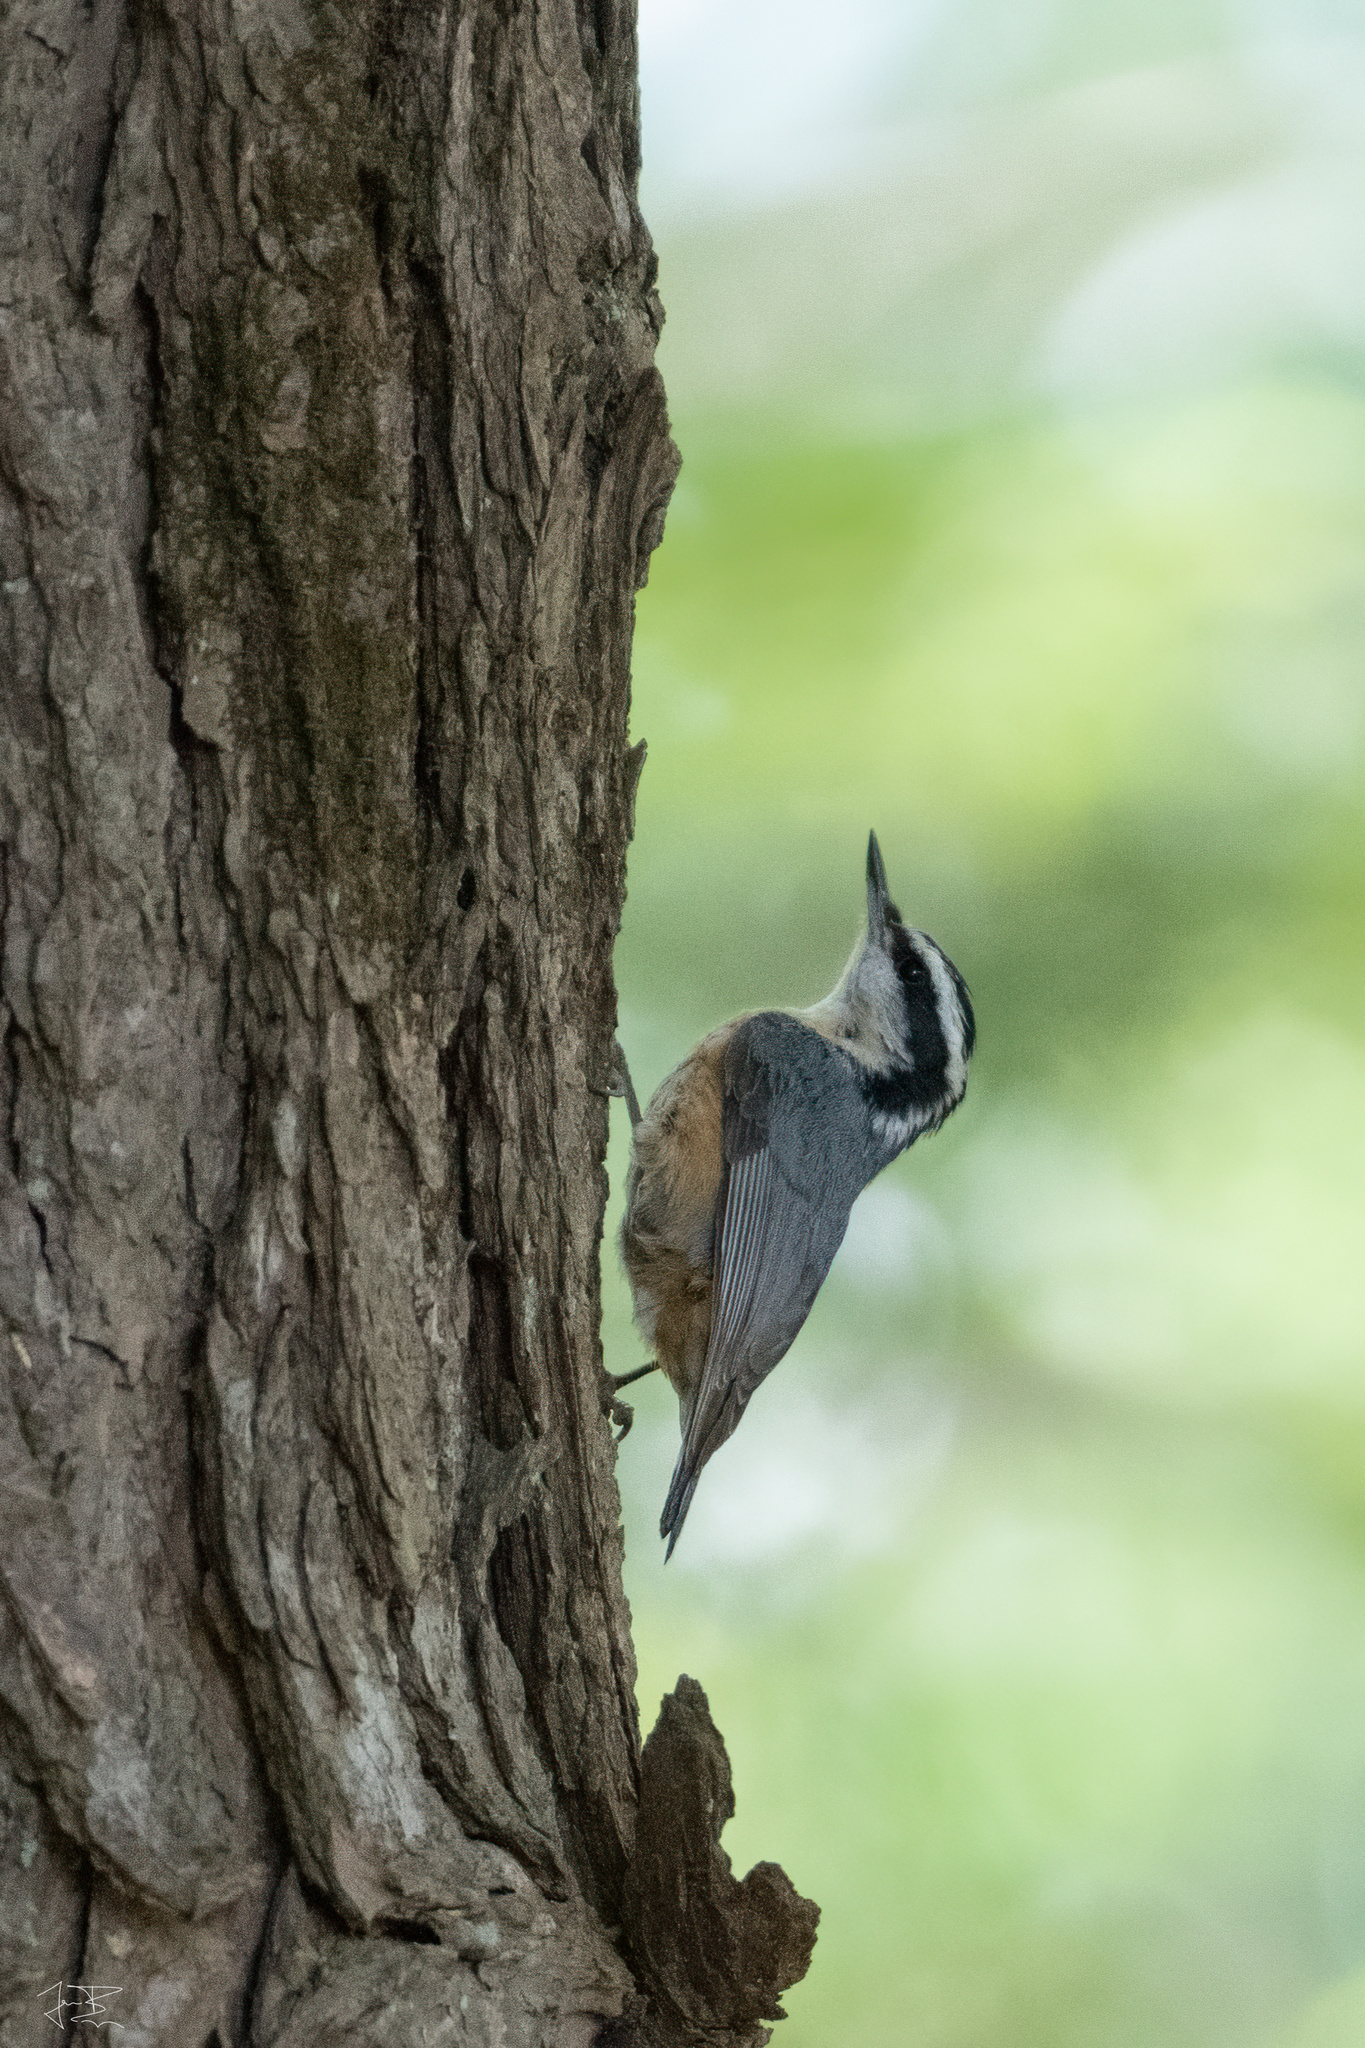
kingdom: Animalia
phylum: Chordata
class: Aves
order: Passeriformes
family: Sittidae
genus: Sitta
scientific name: Sitta canadensis
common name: Red-breasted nuthatch
